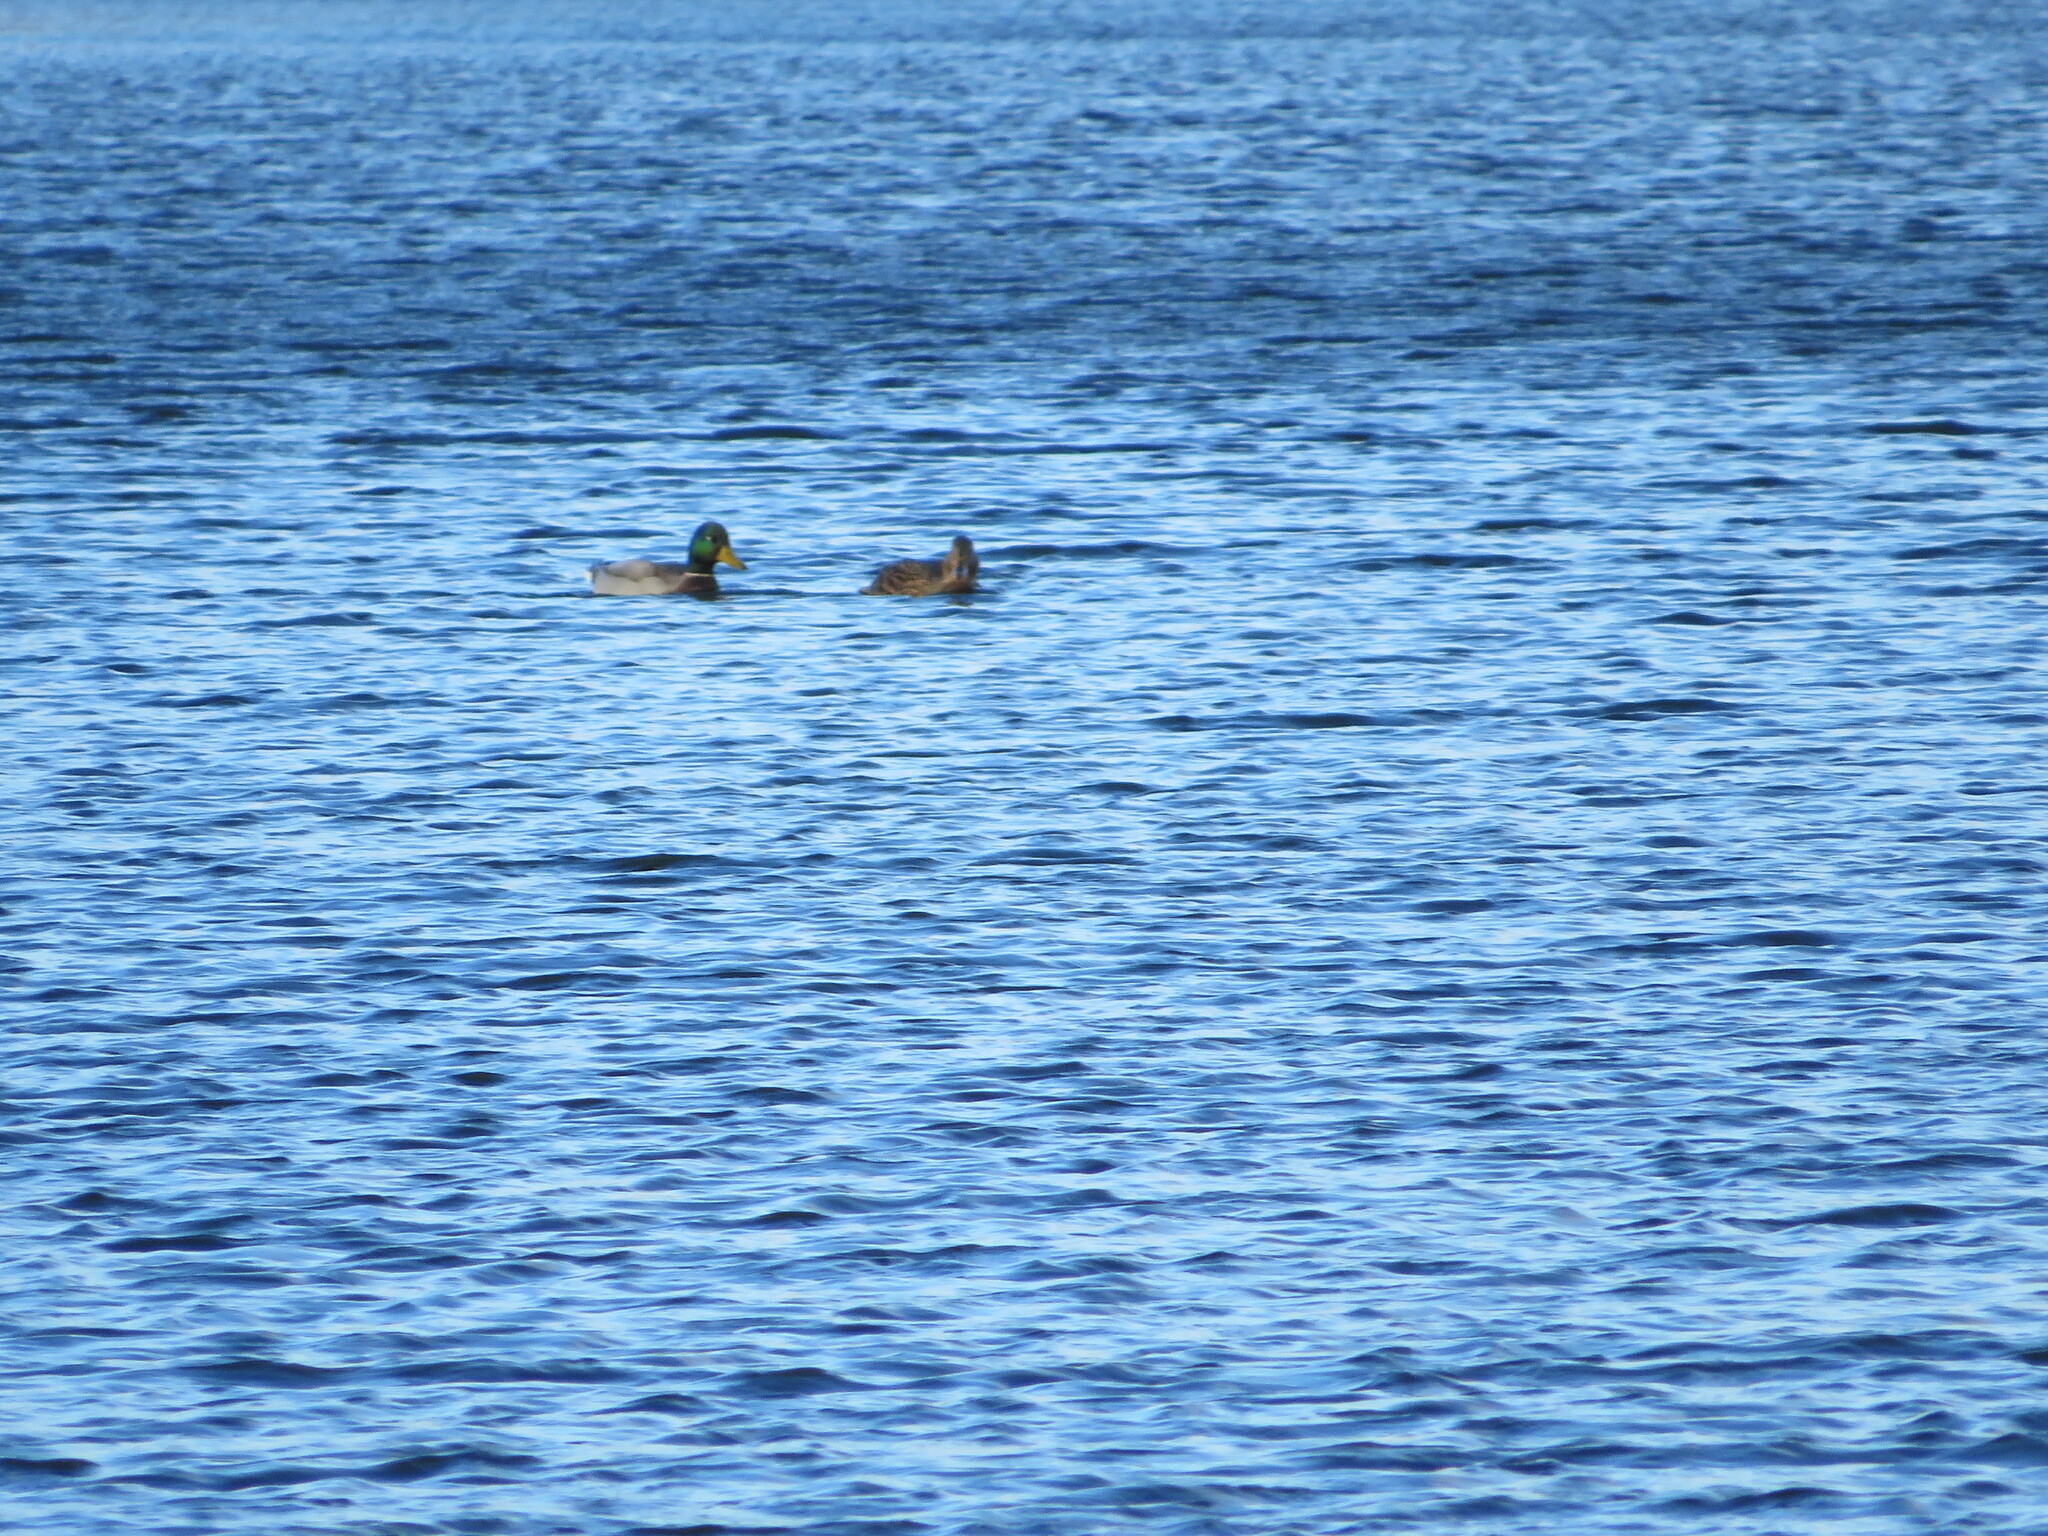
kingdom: Animalia
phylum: Chordata
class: Aves
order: Anseriformes
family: Anatidae
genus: Anas
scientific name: Anas platyrhynchos
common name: Mallard
